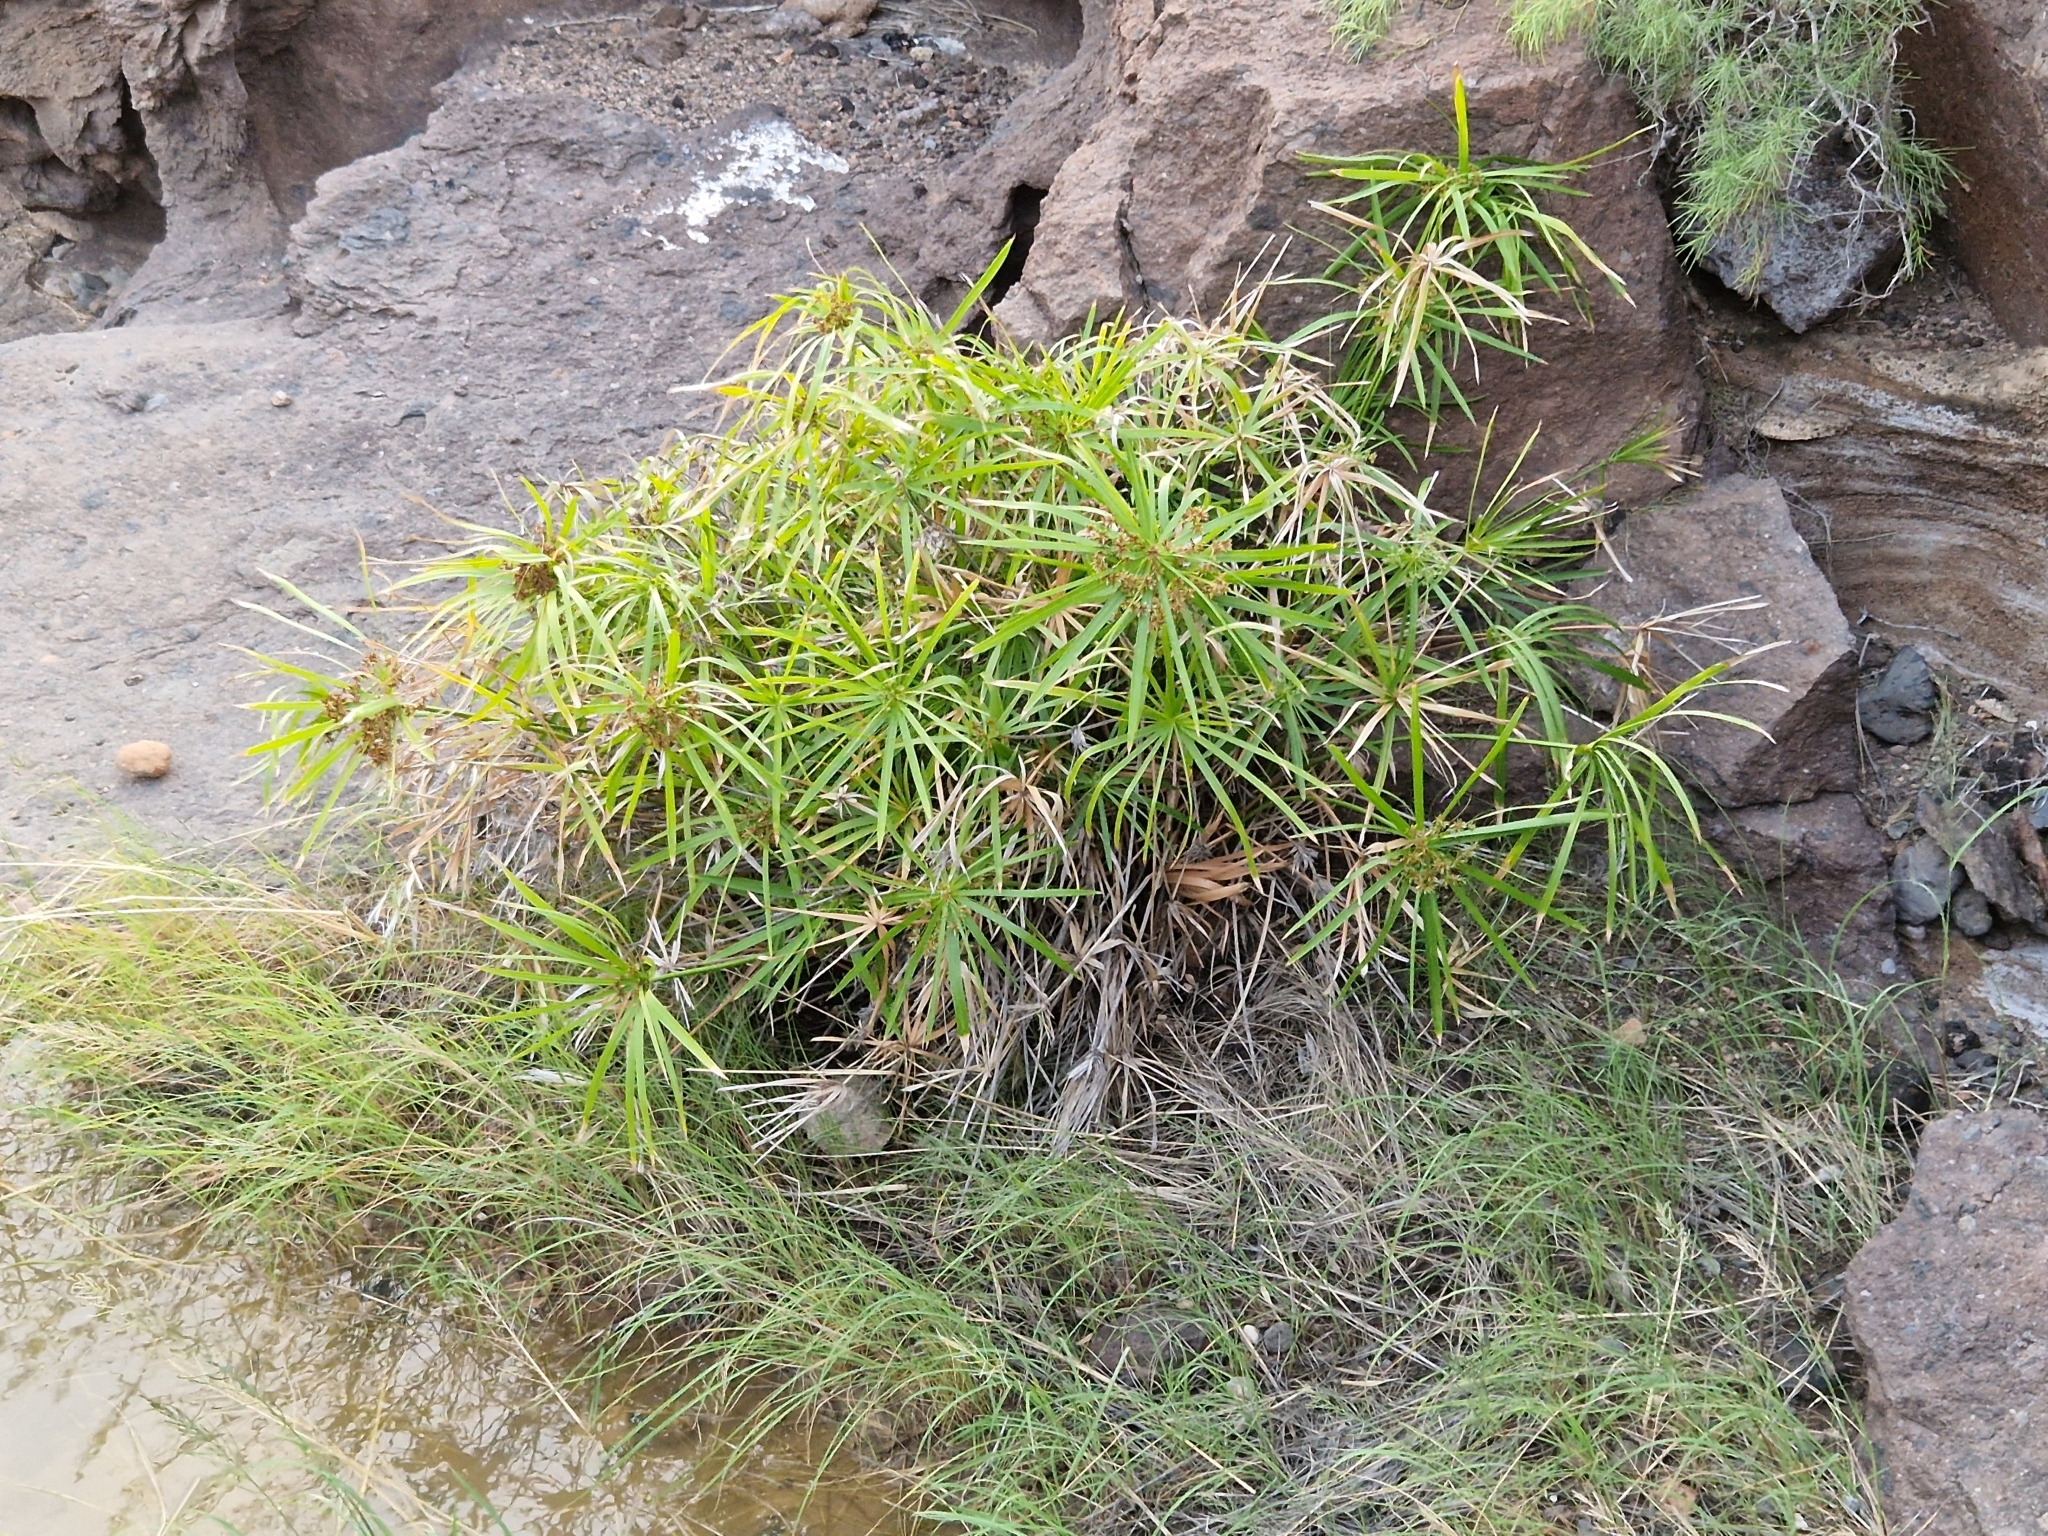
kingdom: Plantae
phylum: Tracheophyta
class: Liliopsida
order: Poales
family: Cyperaceae
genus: Cyperus
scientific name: Cyperus alternifolius
